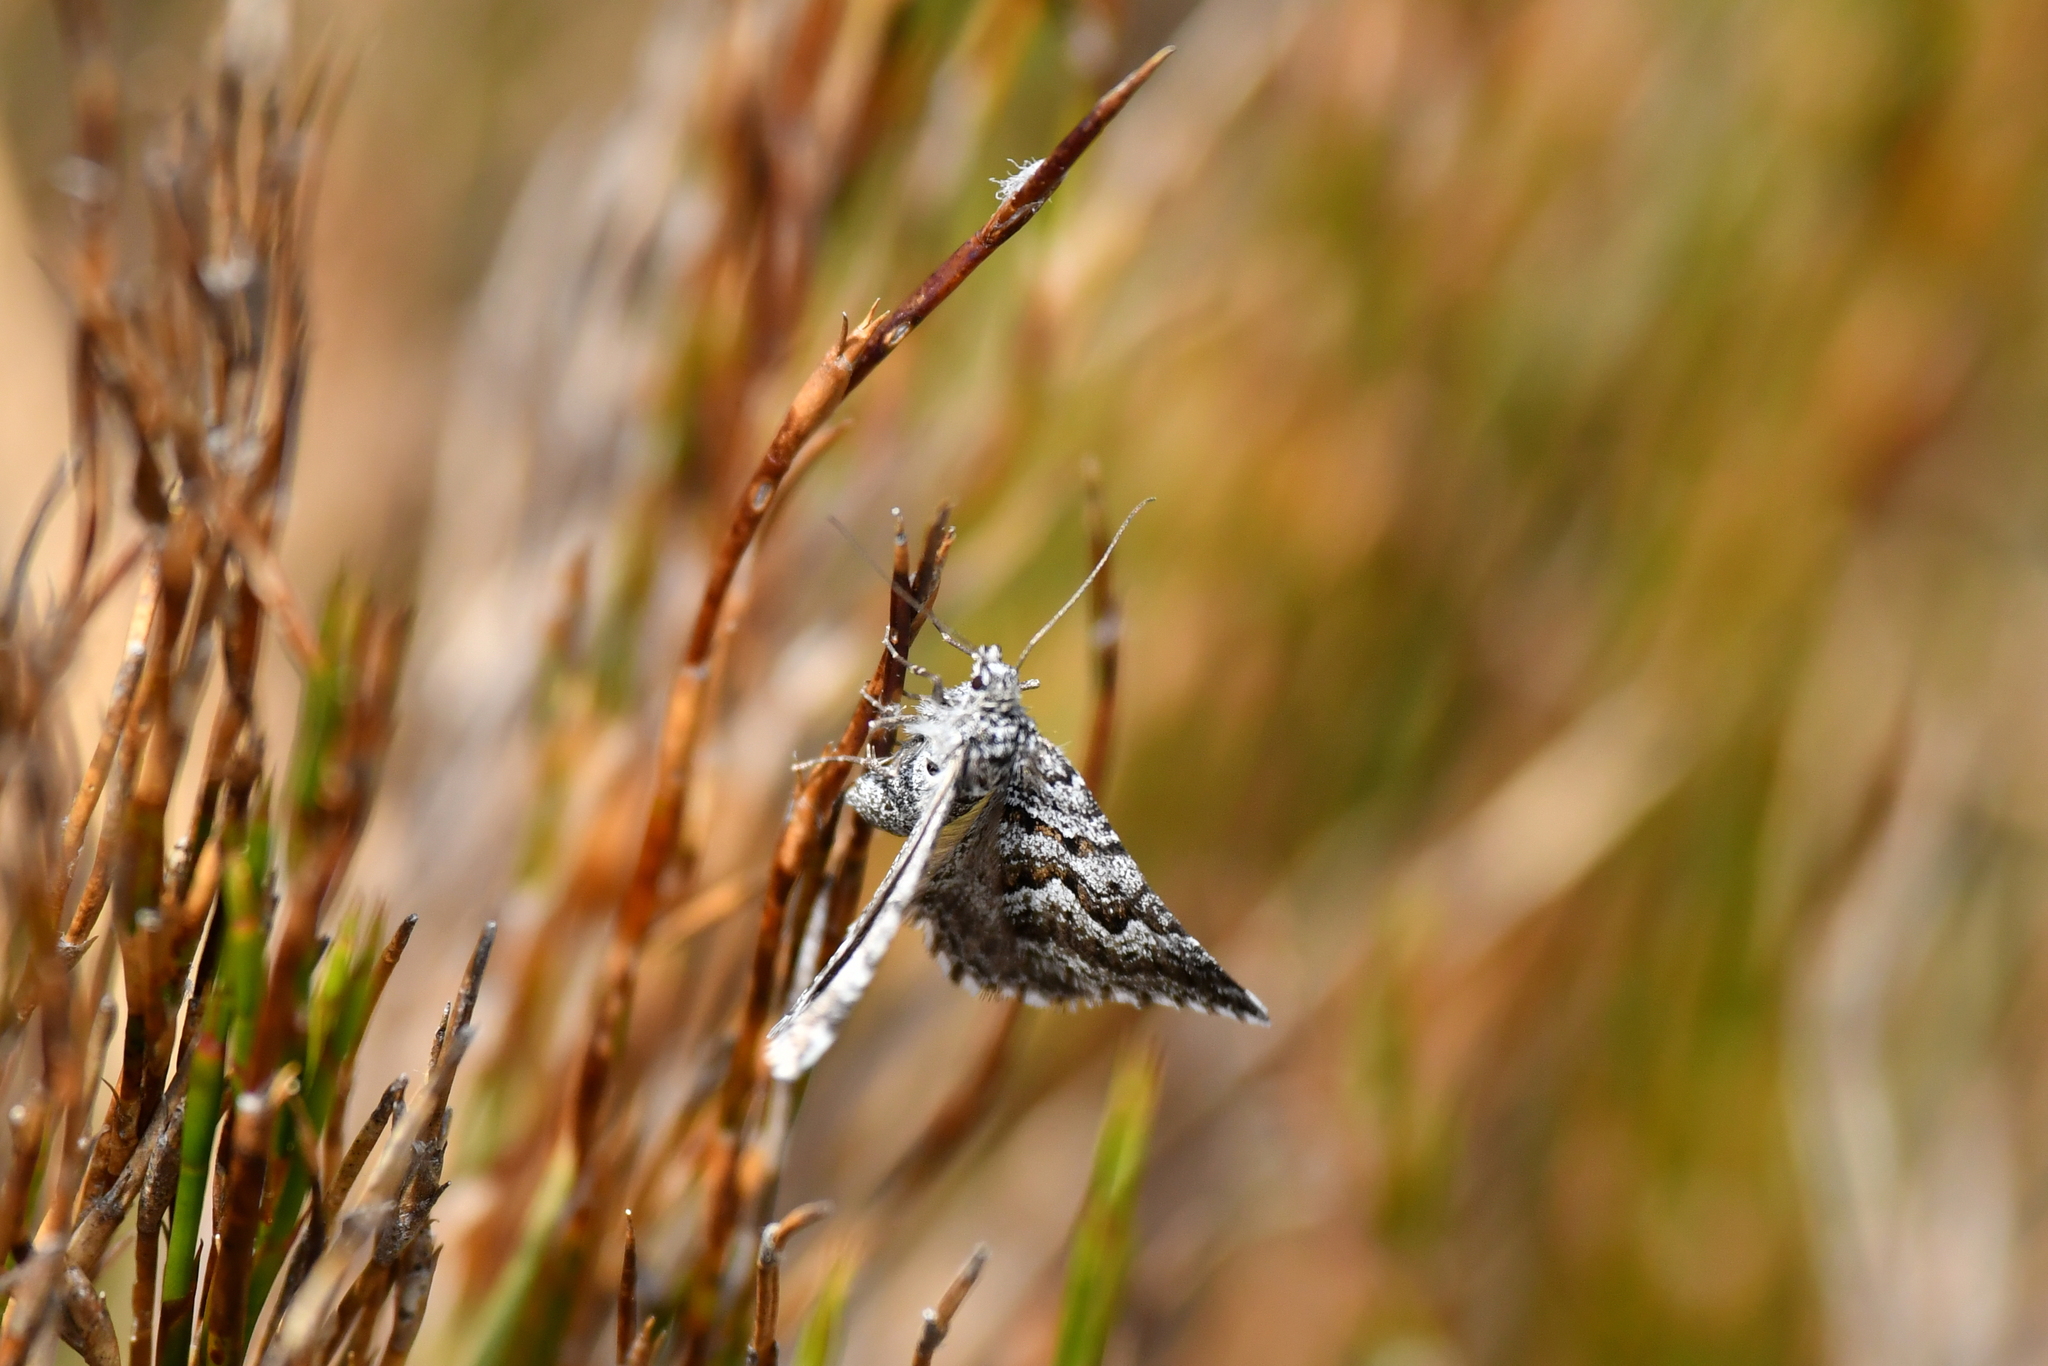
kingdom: Animalia
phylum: Arthropoda
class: Insecta
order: Lepidoptera
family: Geometridae
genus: Aponotoreas
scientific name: Aponotoreas anthracias
